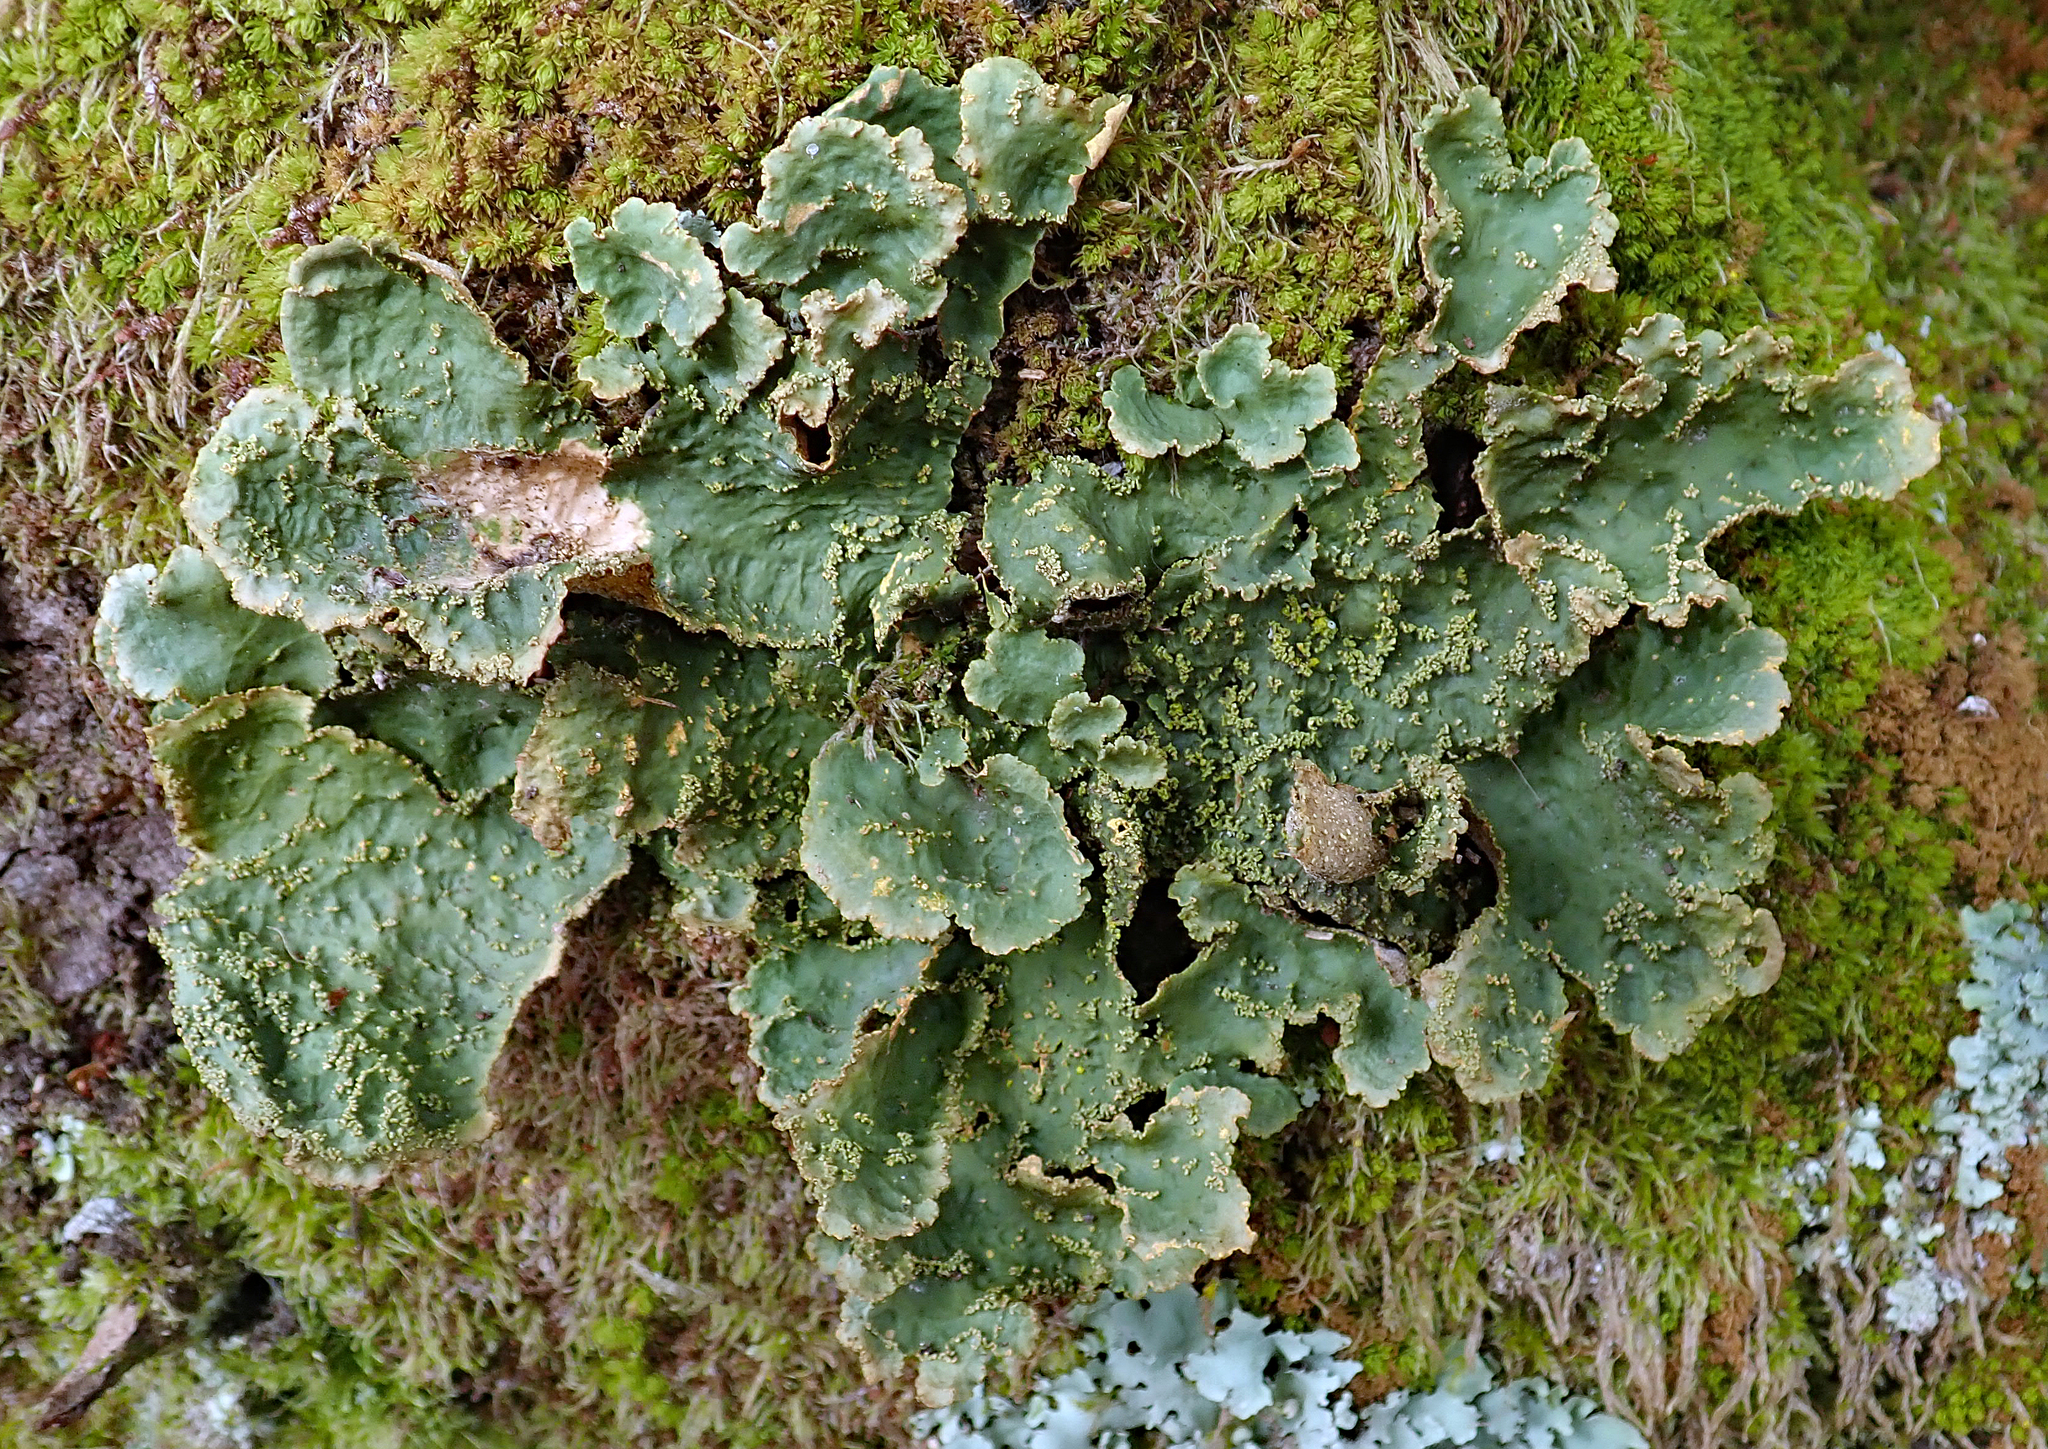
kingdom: Fungi
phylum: Ascomycota
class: Lecanoromycetes
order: Peltigerales
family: Lobariaceae
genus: Yarrumia
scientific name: Yarrumia colensoi
